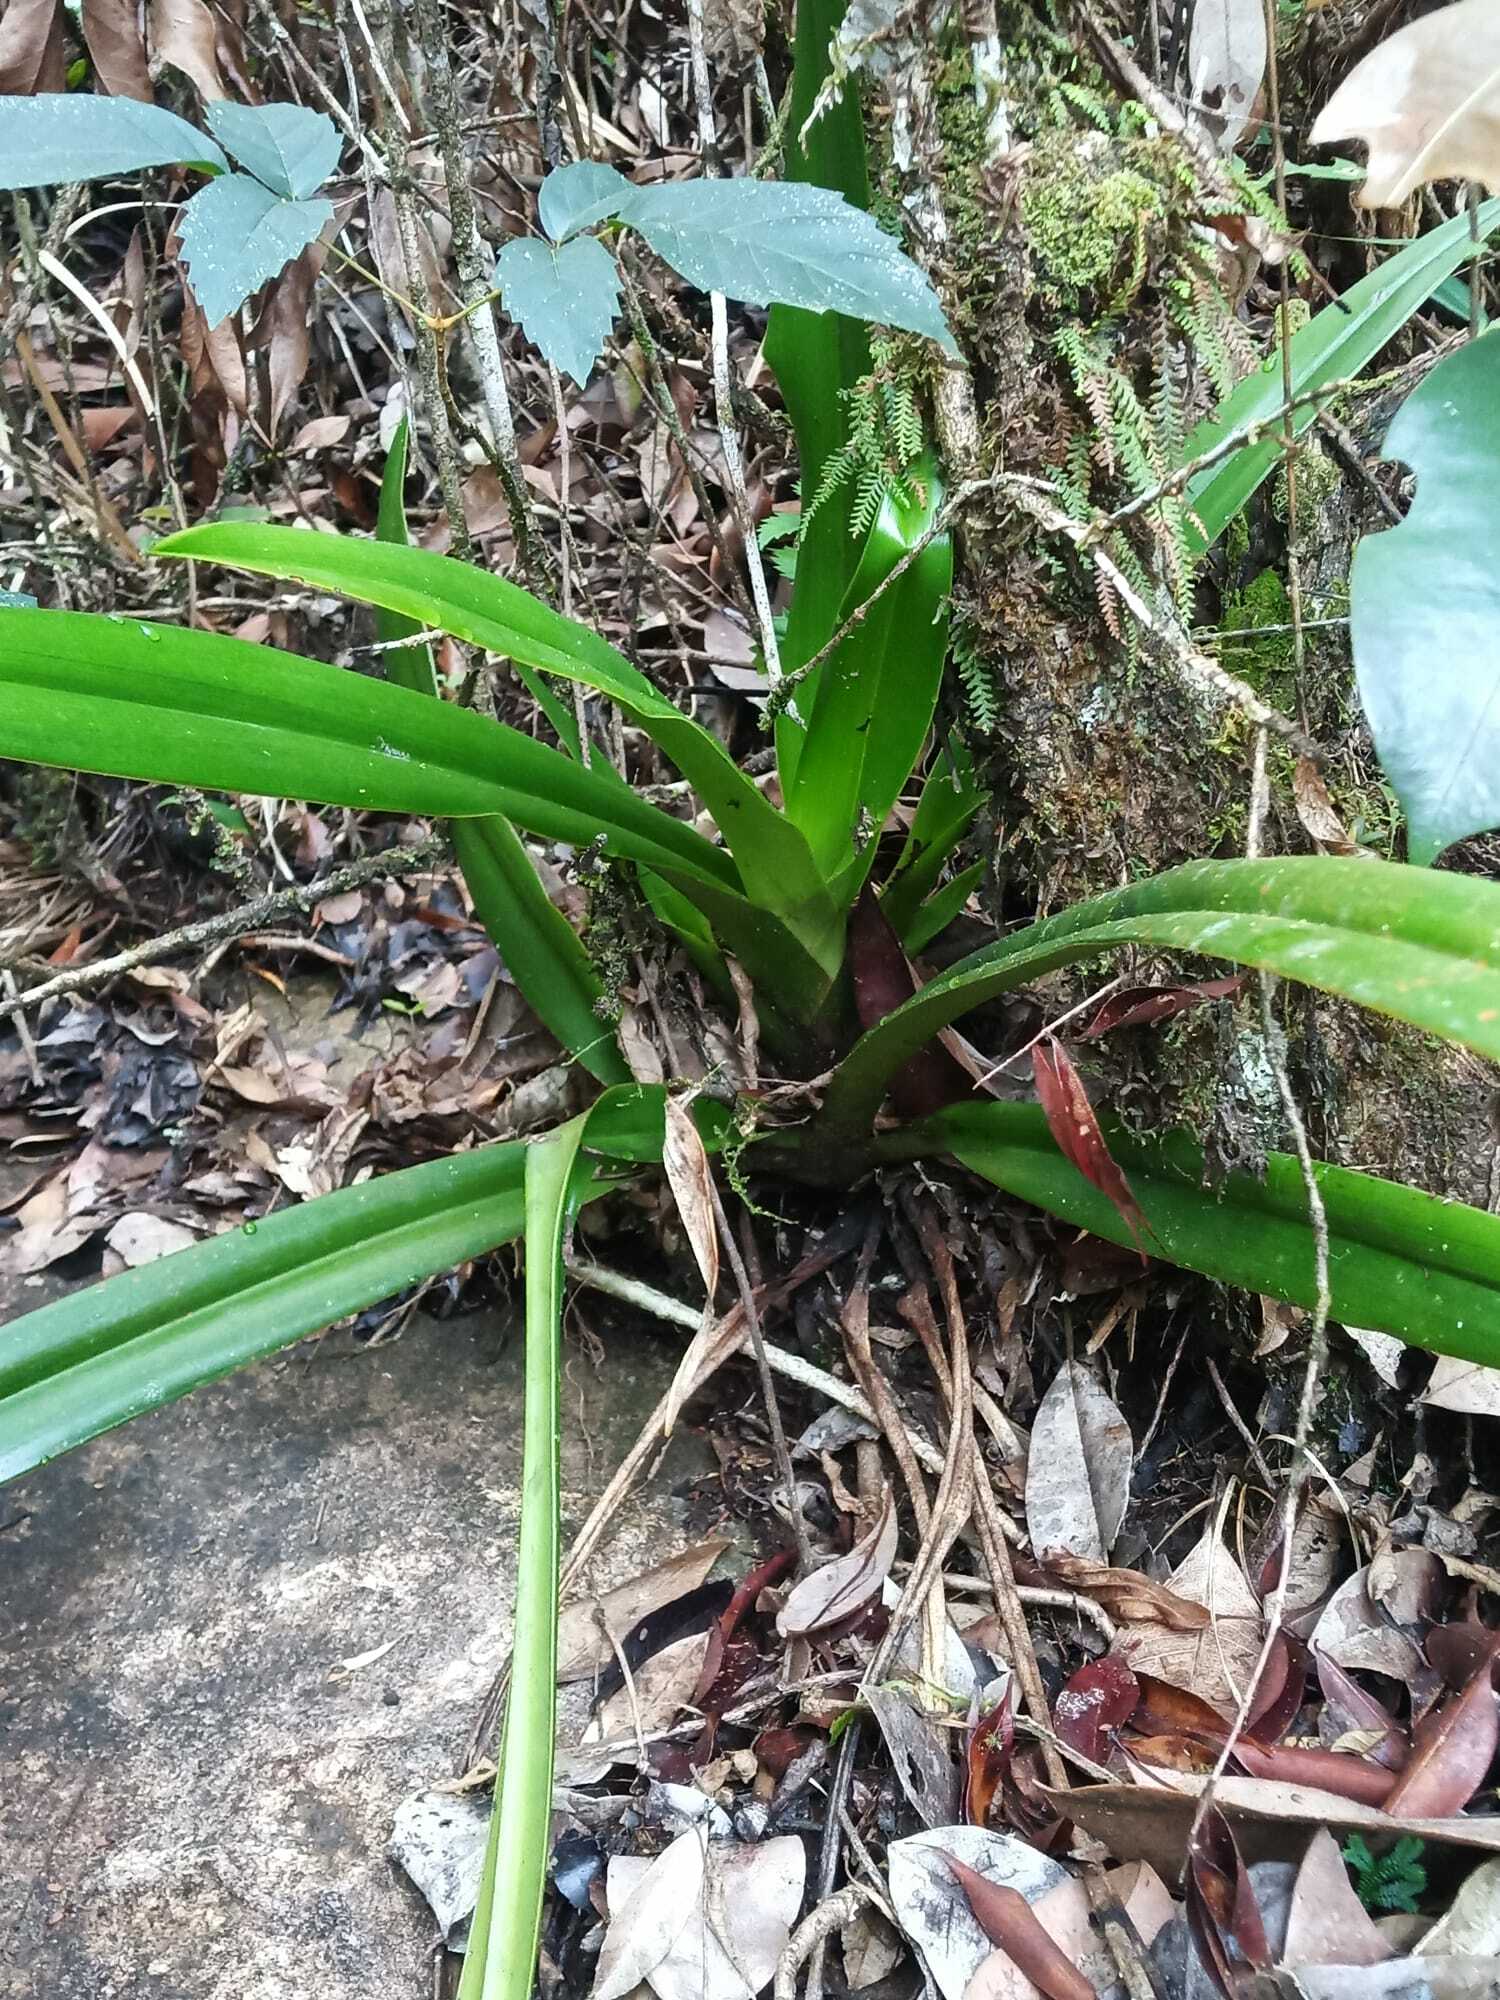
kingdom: Plantae
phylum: Tracheophyta
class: Liliopsida
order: Asparagales
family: Orchidaceae
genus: Phragmipedium
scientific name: Phragmipedium lindleyanum
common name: Lindley's phragmipedium
